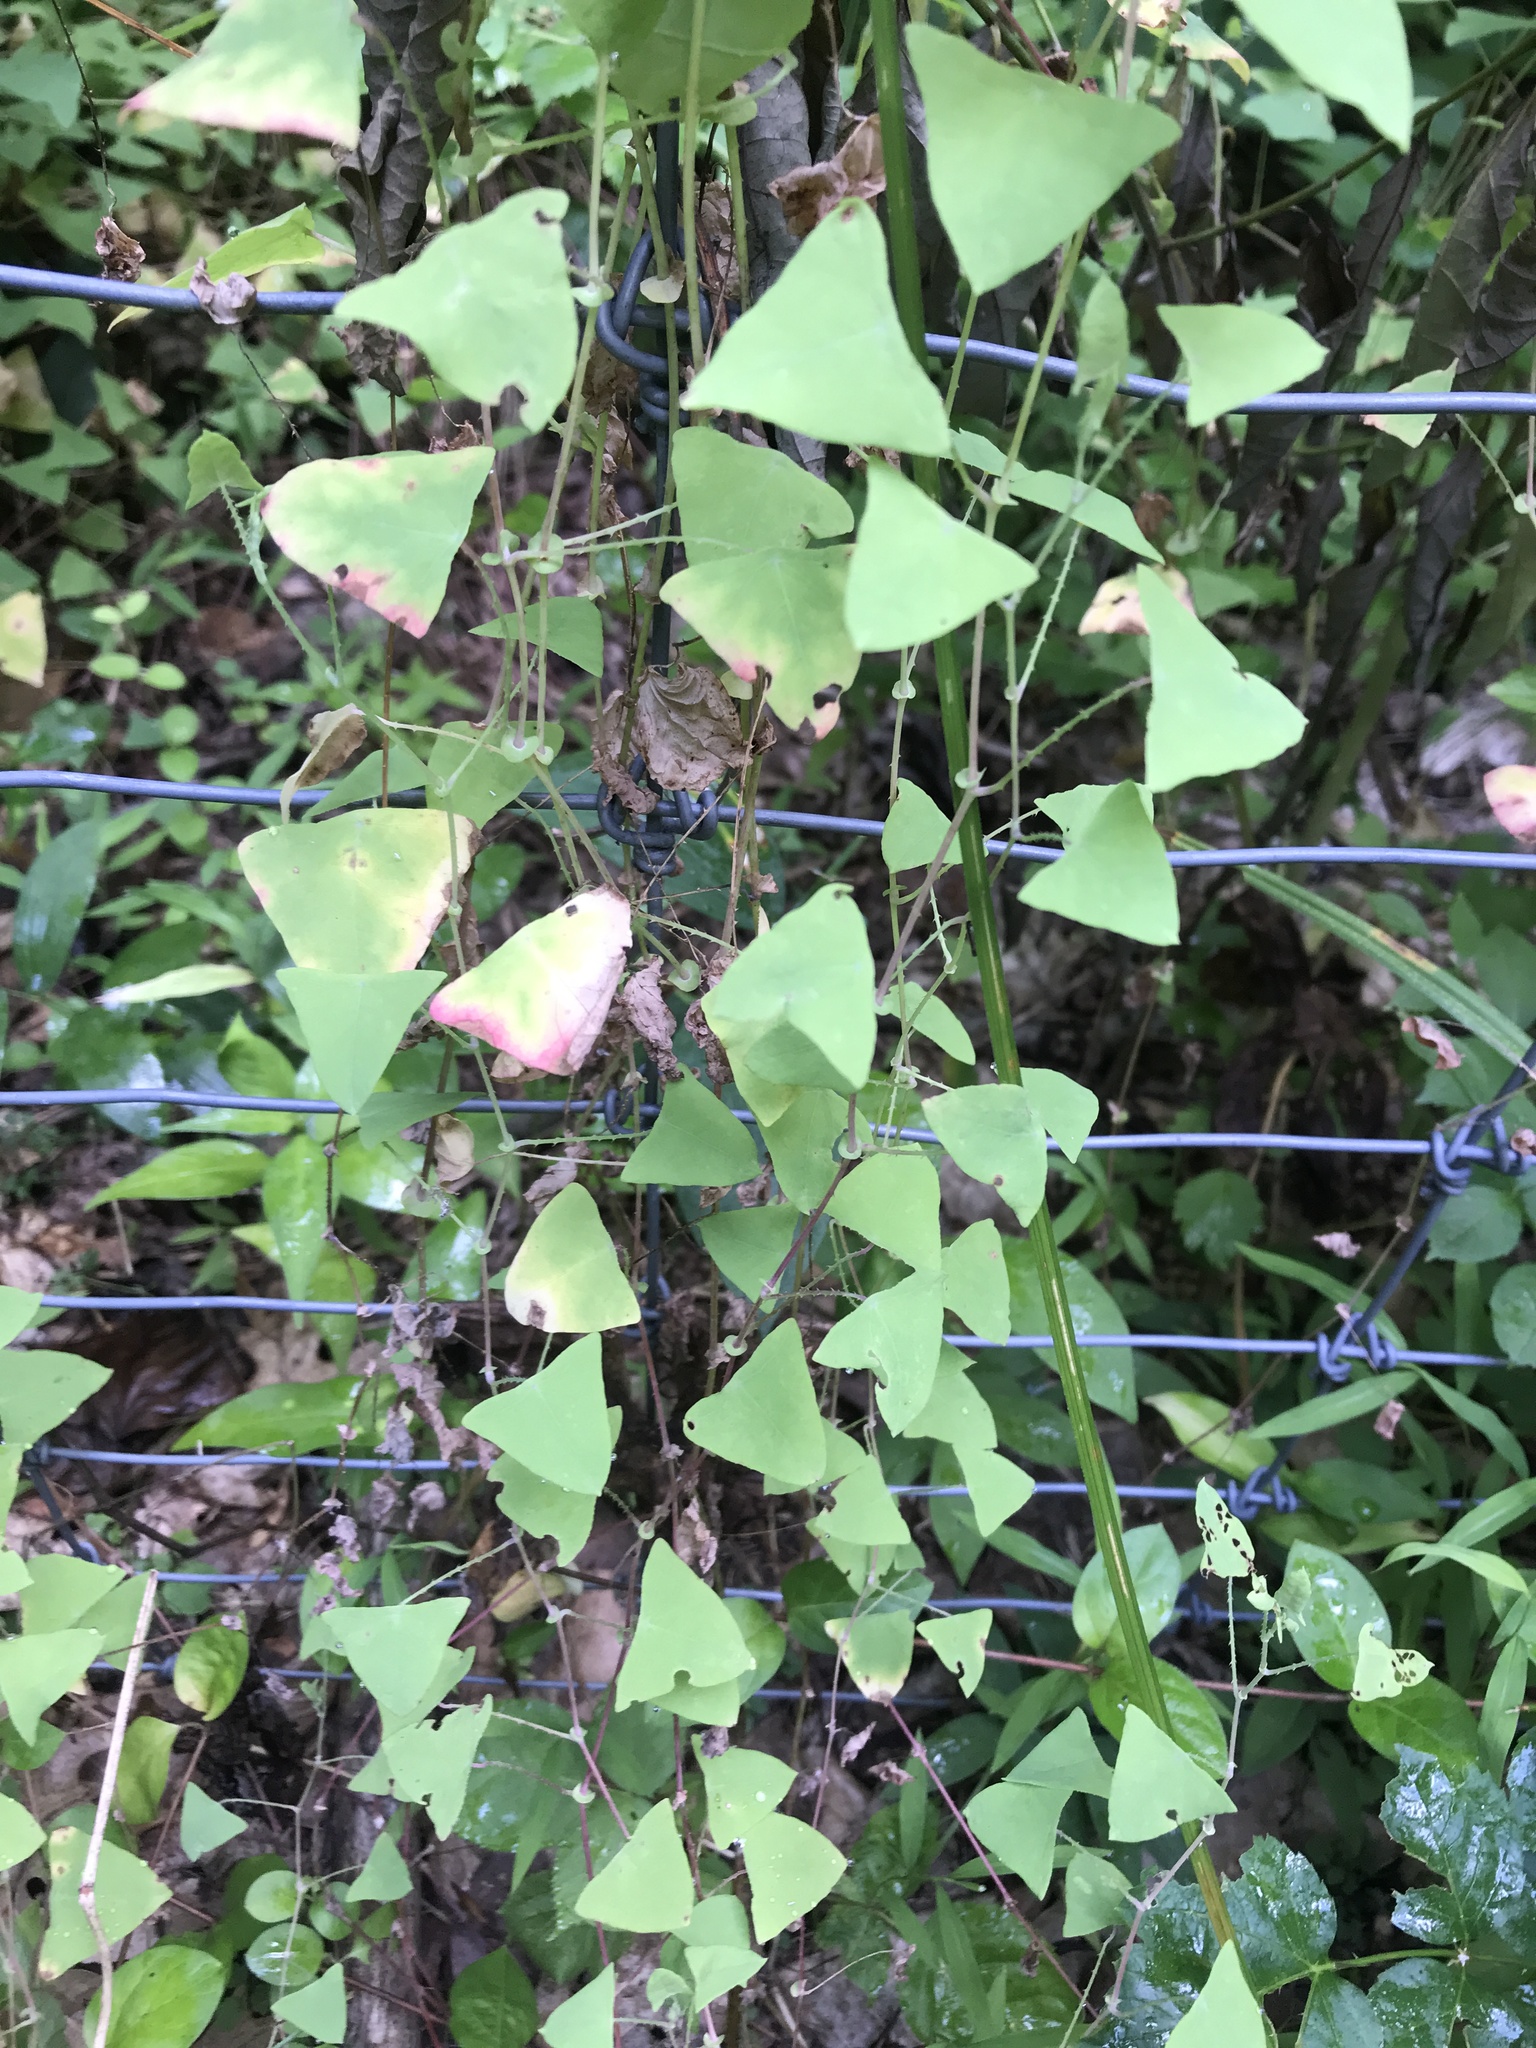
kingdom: Plantae
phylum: Tracheophyta
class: Magnoliopsida
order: Caryophyllales
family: Polygonaceae
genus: Persicaria
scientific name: Persicaria perfoliata
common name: Asiatic tearthumb
